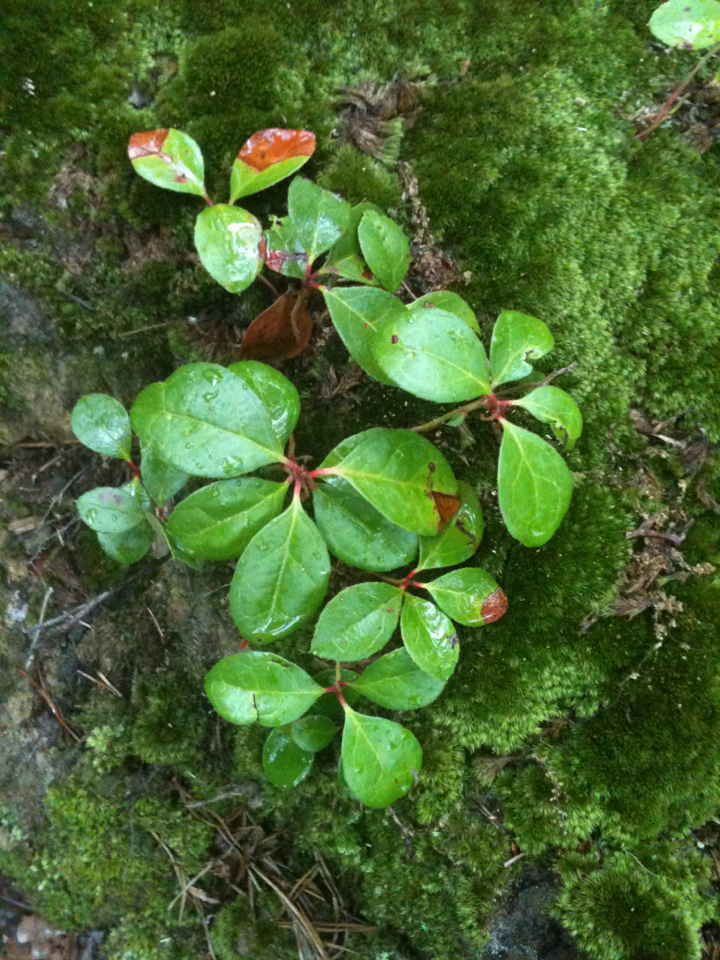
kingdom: Plantae
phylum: Tracheophyta
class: Magnoliopsida
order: Ericales
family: Ericaceae
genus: Gaultheria
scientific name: Gaultheria procumbens
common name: Checkerberry
